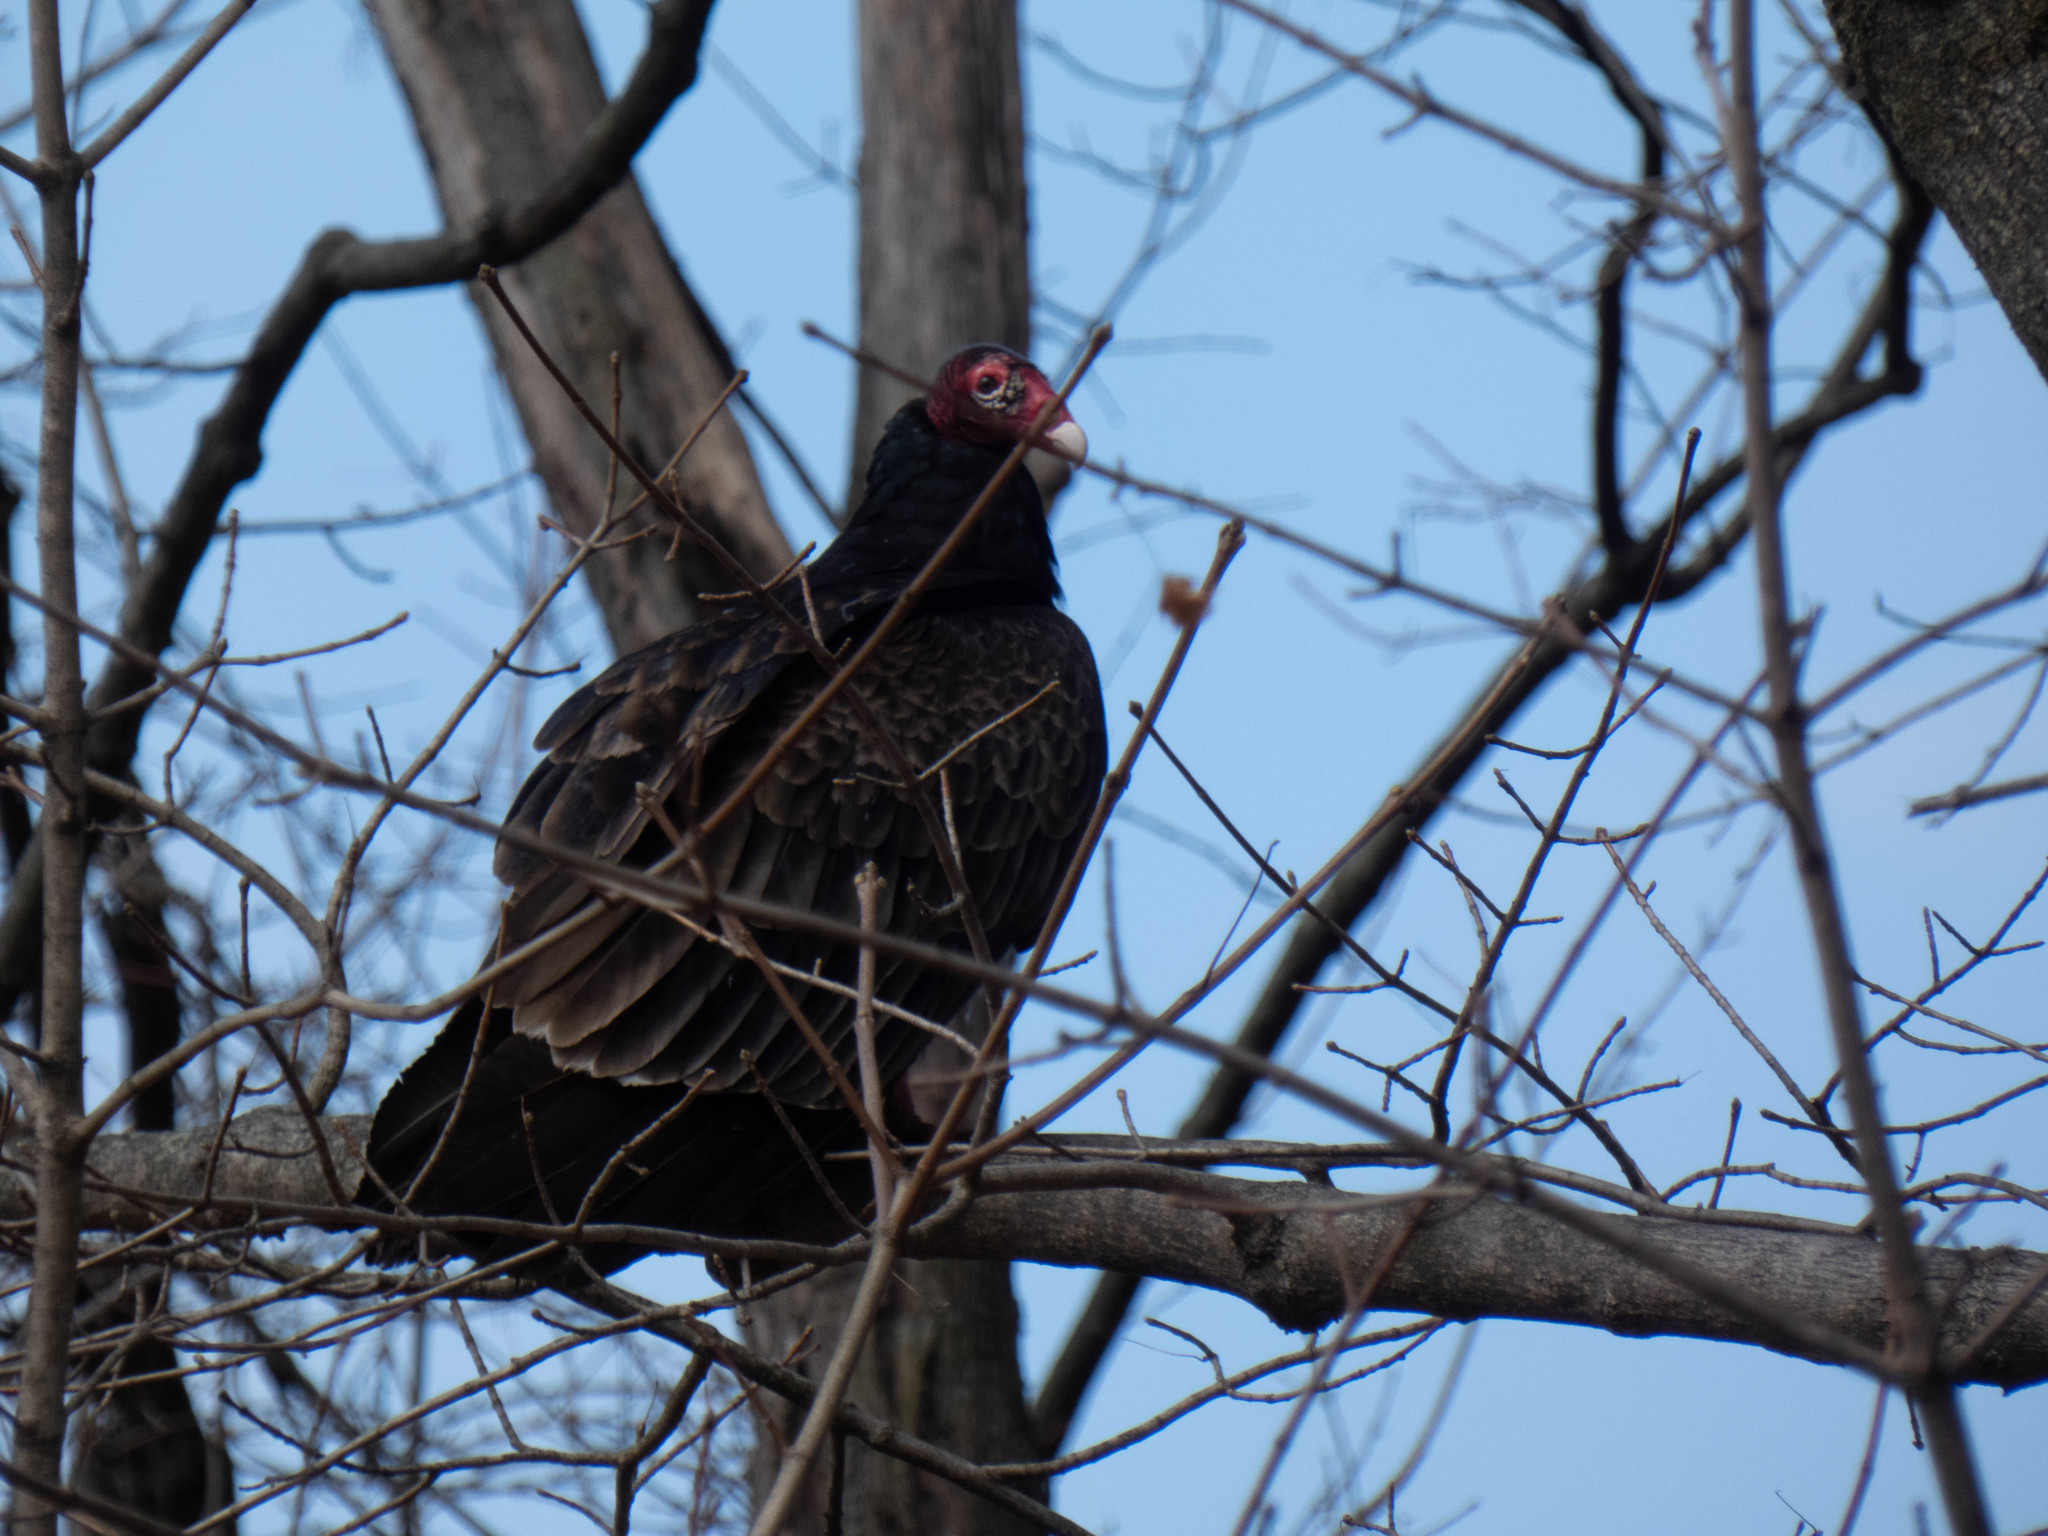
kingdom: Animalia
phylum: Chordata
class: Aves
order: Accipitriformes
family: Cathartidae
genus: Cathartes
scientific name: Cathartes aura
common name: Turkey vulture
